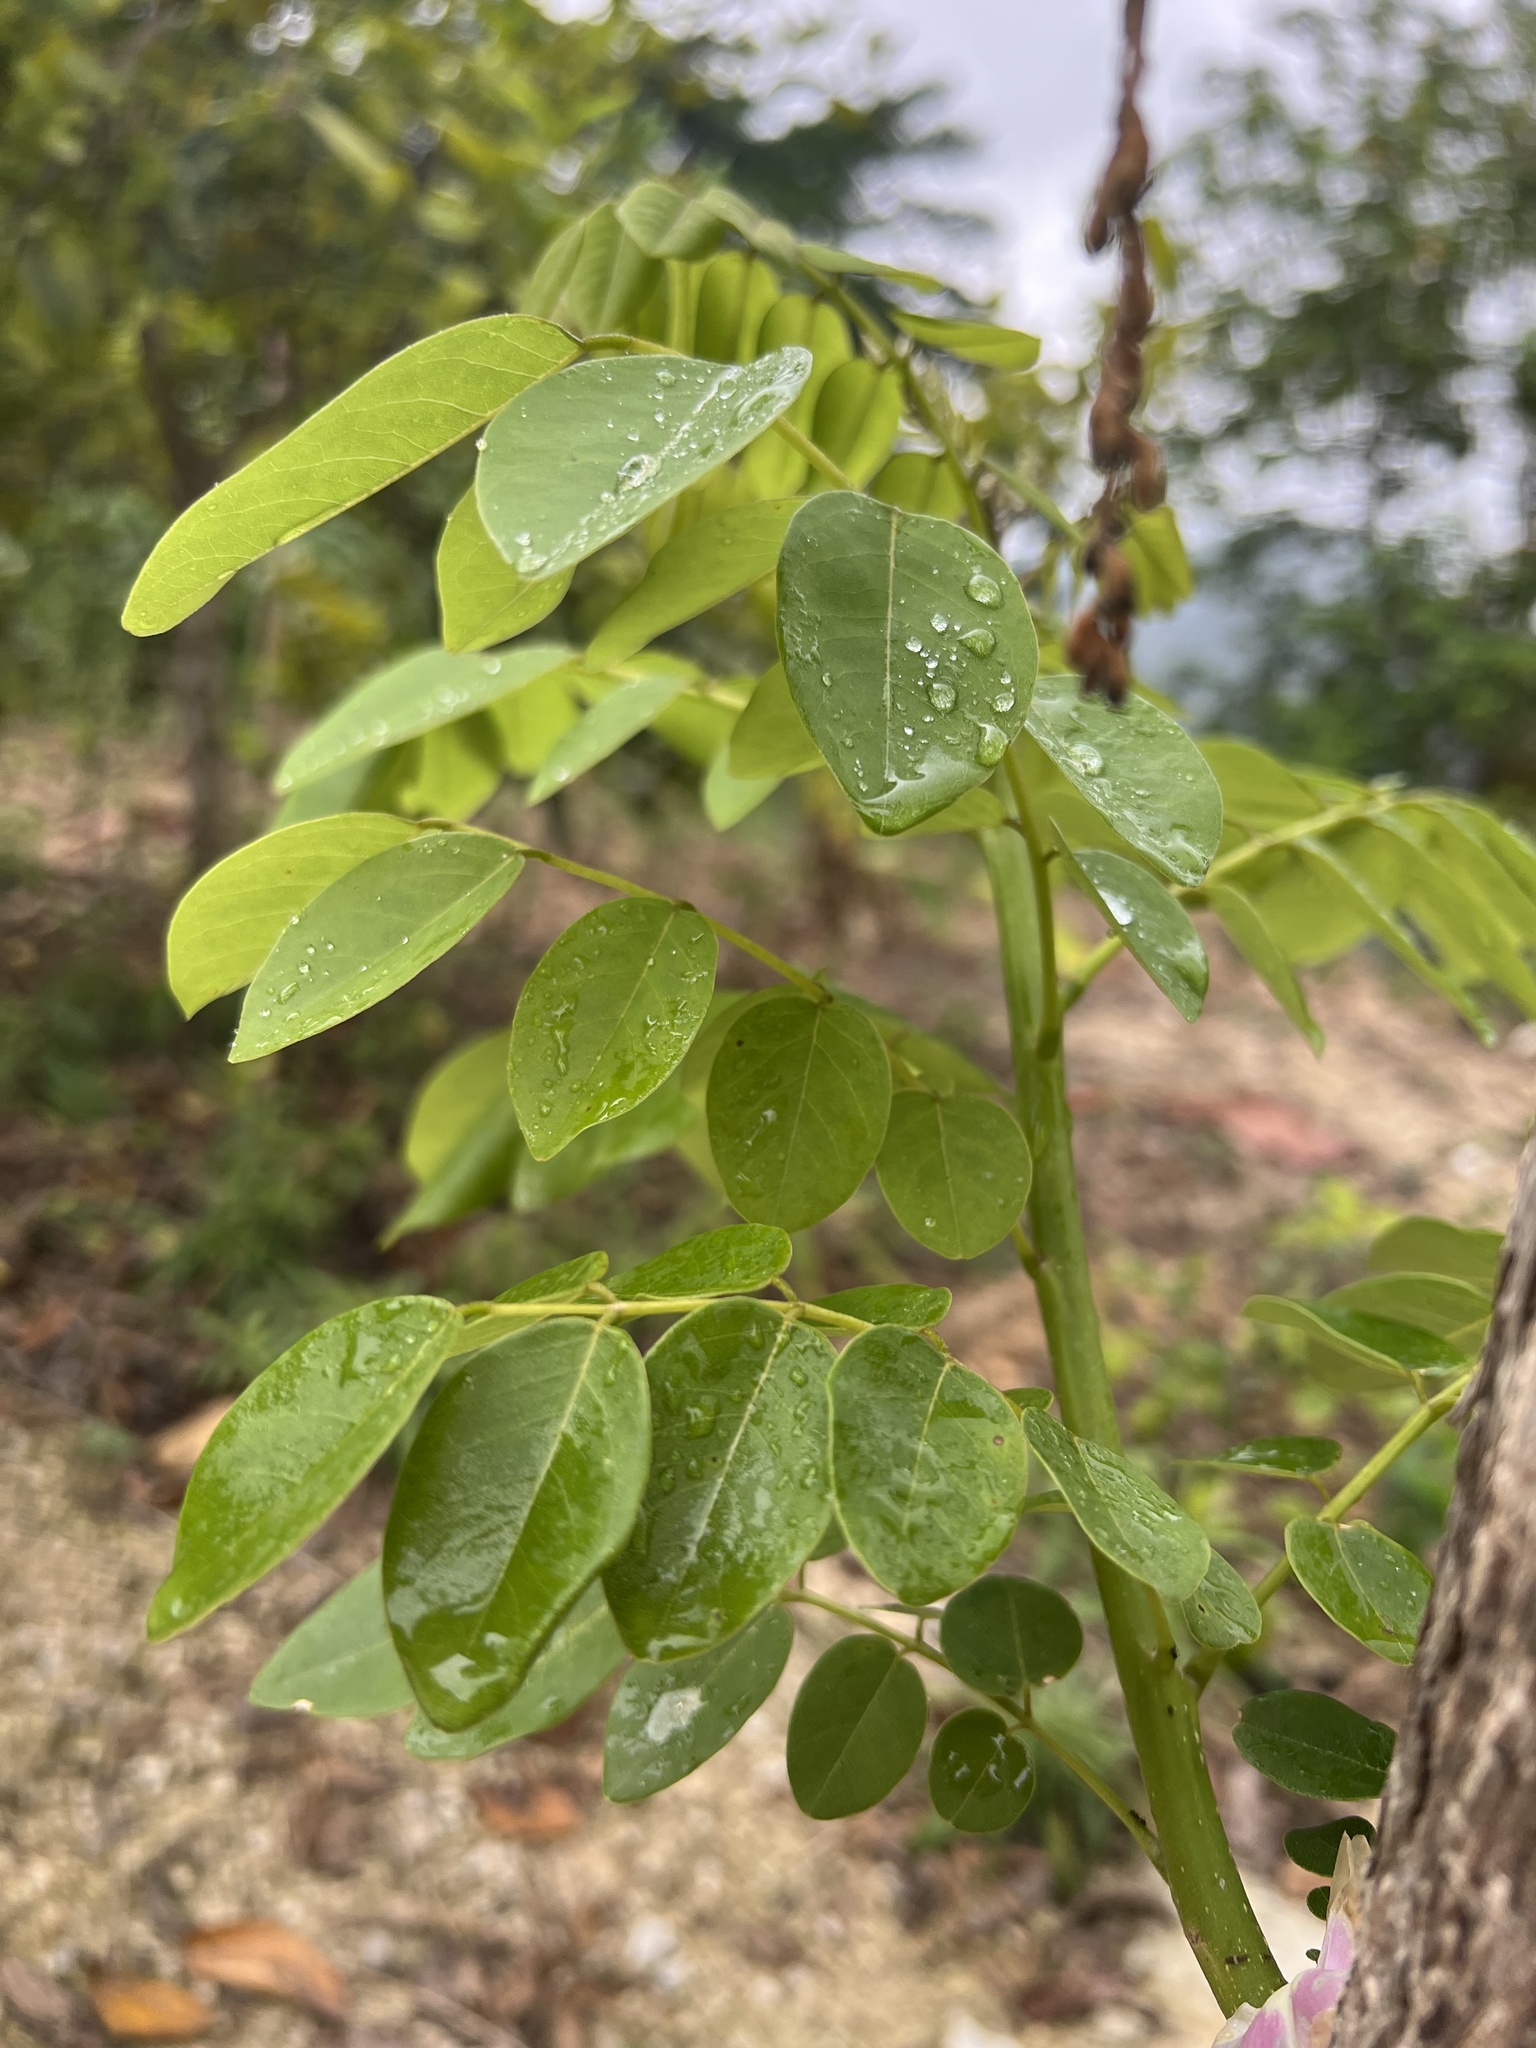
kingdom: Plantae
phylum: Tracheophyta
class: Magnoliopsida
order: Fabales
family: Fabaceae
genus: Gliricidia
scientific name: Gliricidia sepium
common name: Quickstick
